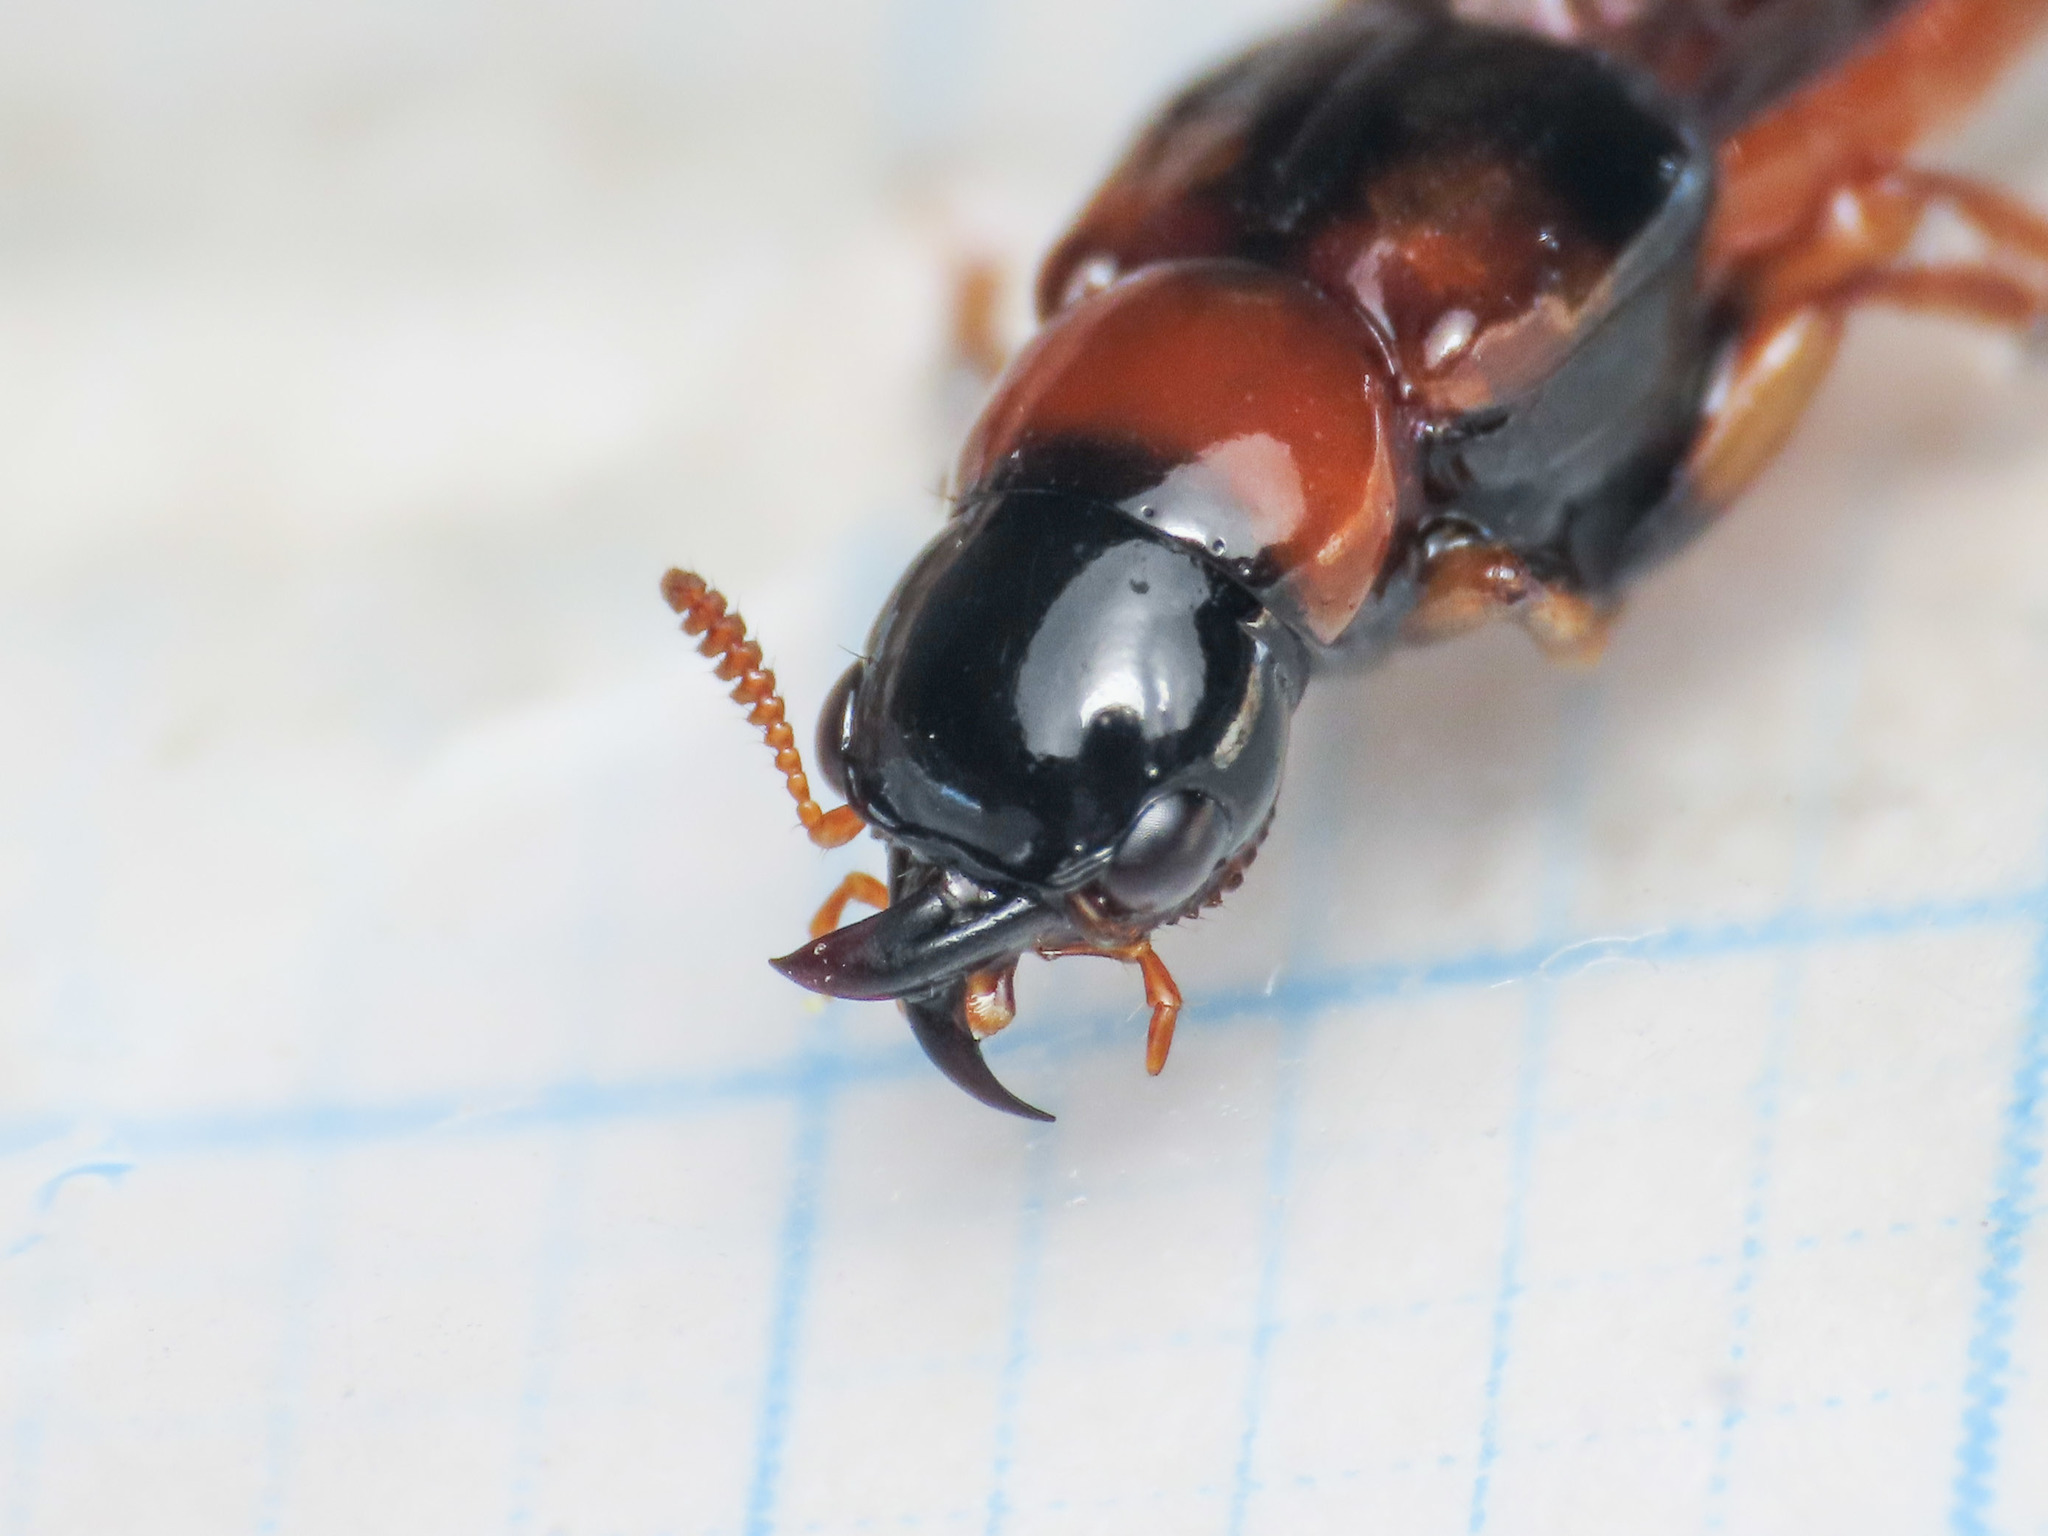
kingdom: Animalia
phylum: Arthropoda
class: Insecta
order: Coleoptera
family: Staphylinidae
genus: Oxyporus
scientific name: Oxyporus rufus
